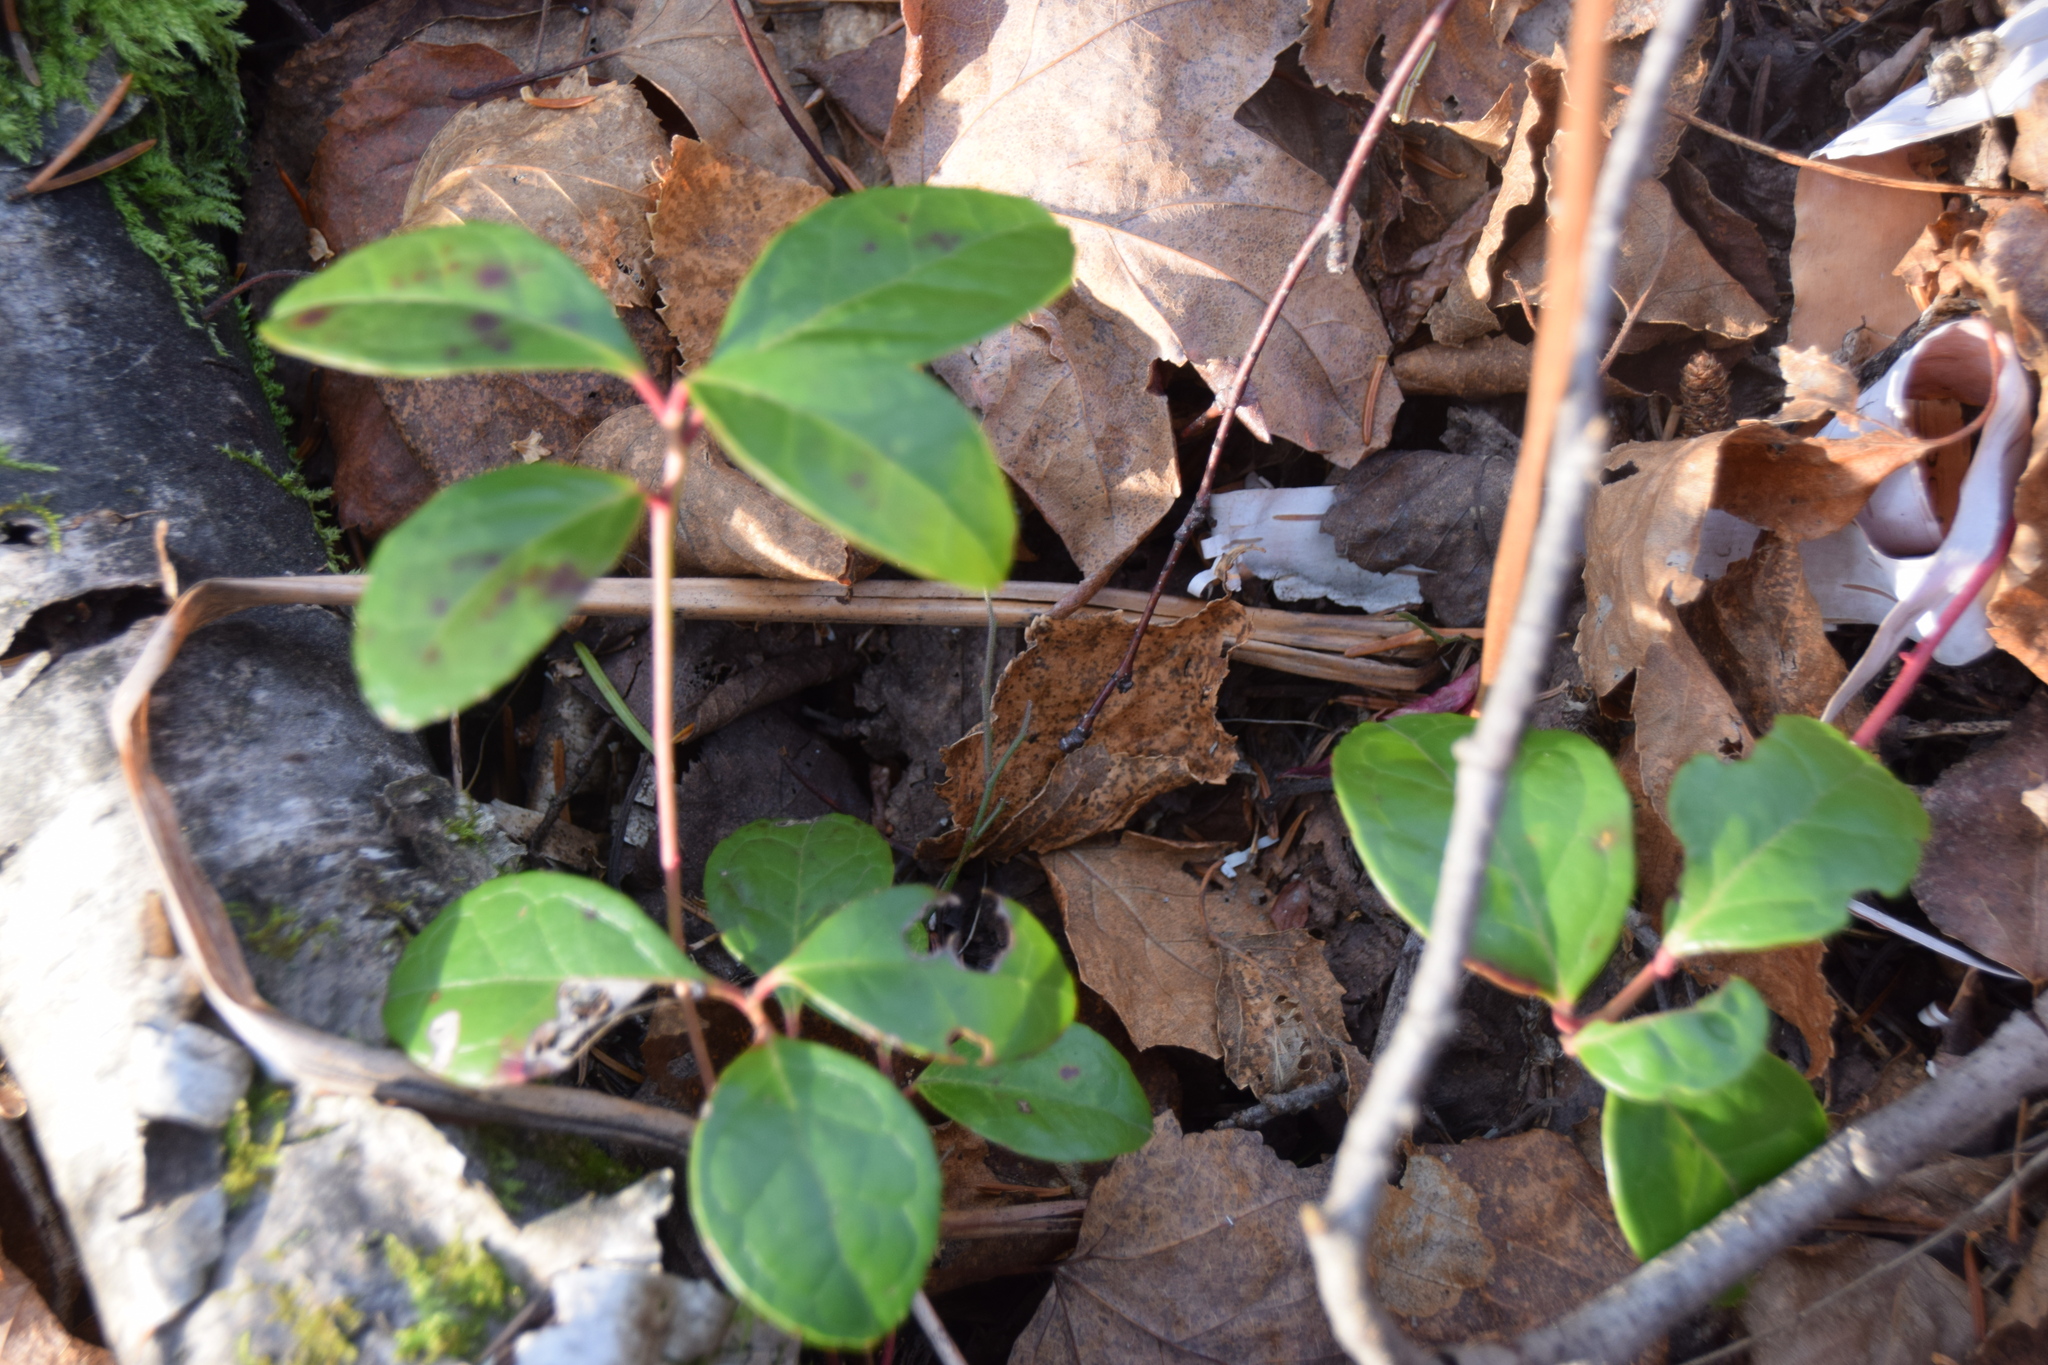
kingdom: Plantae
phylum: Tracheophyta
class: Magnoliopsida
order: Ericales
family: Ericaceae
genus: Gaultheria
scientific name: Gaultheria procumbens
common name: Checkerberry
